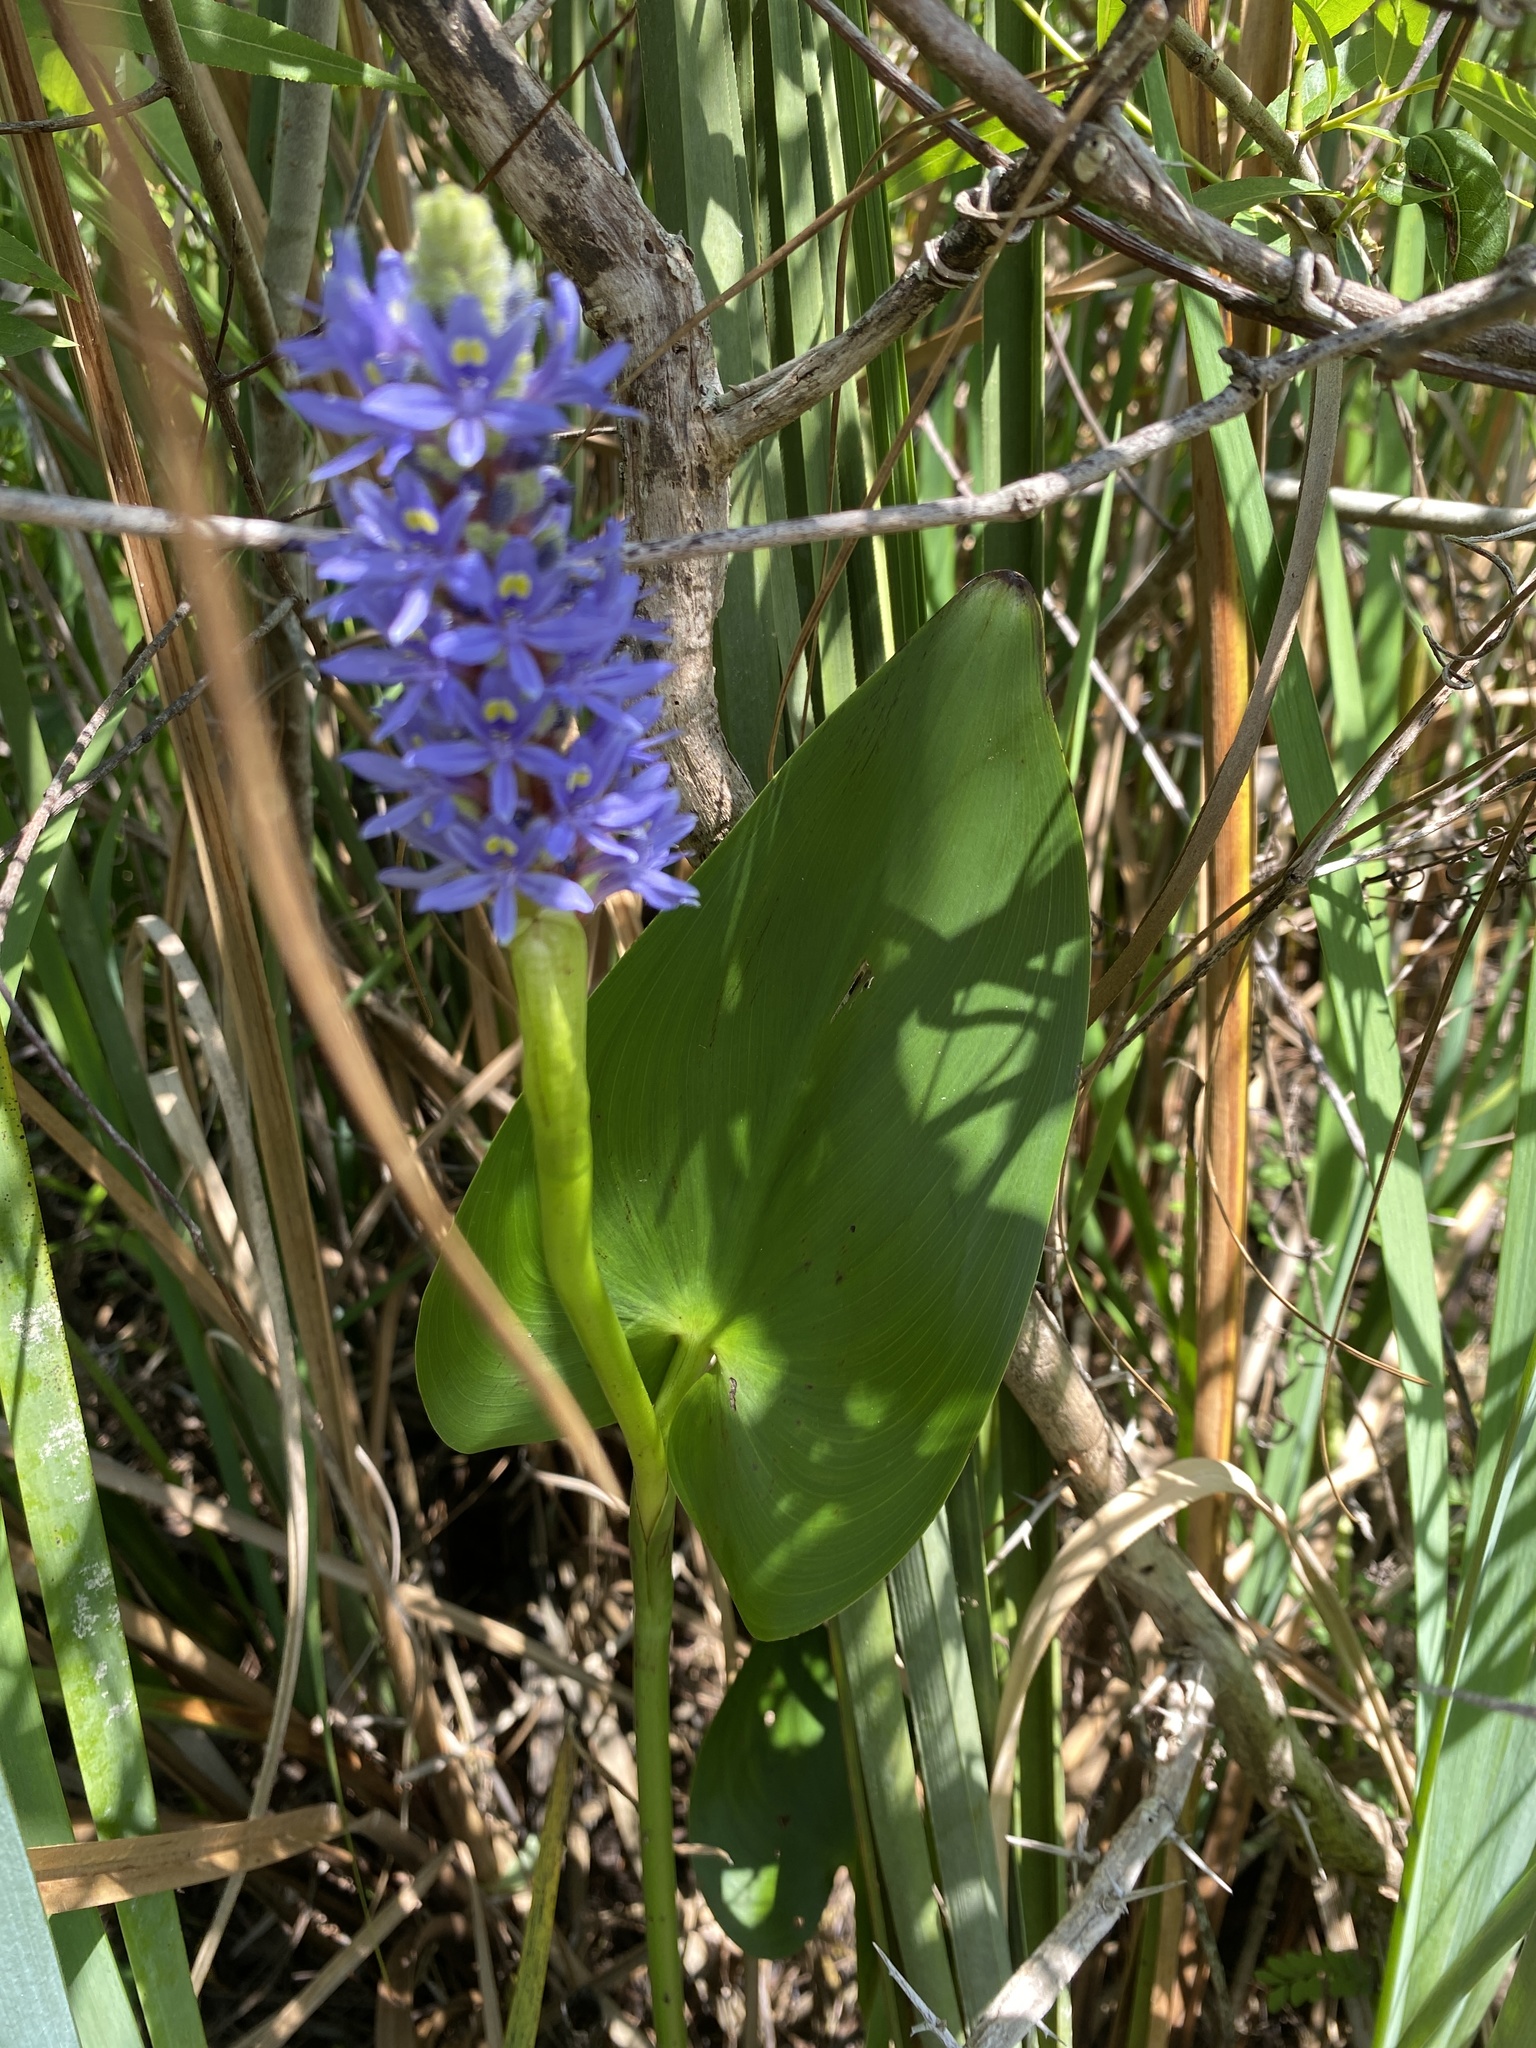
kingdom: Plantae
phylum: Tracheophyta
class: Liliopsida
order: Commelinales
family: Pontederiaceae
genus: Pontederia
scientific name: Pontederia cordata
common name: Pickerelweed
